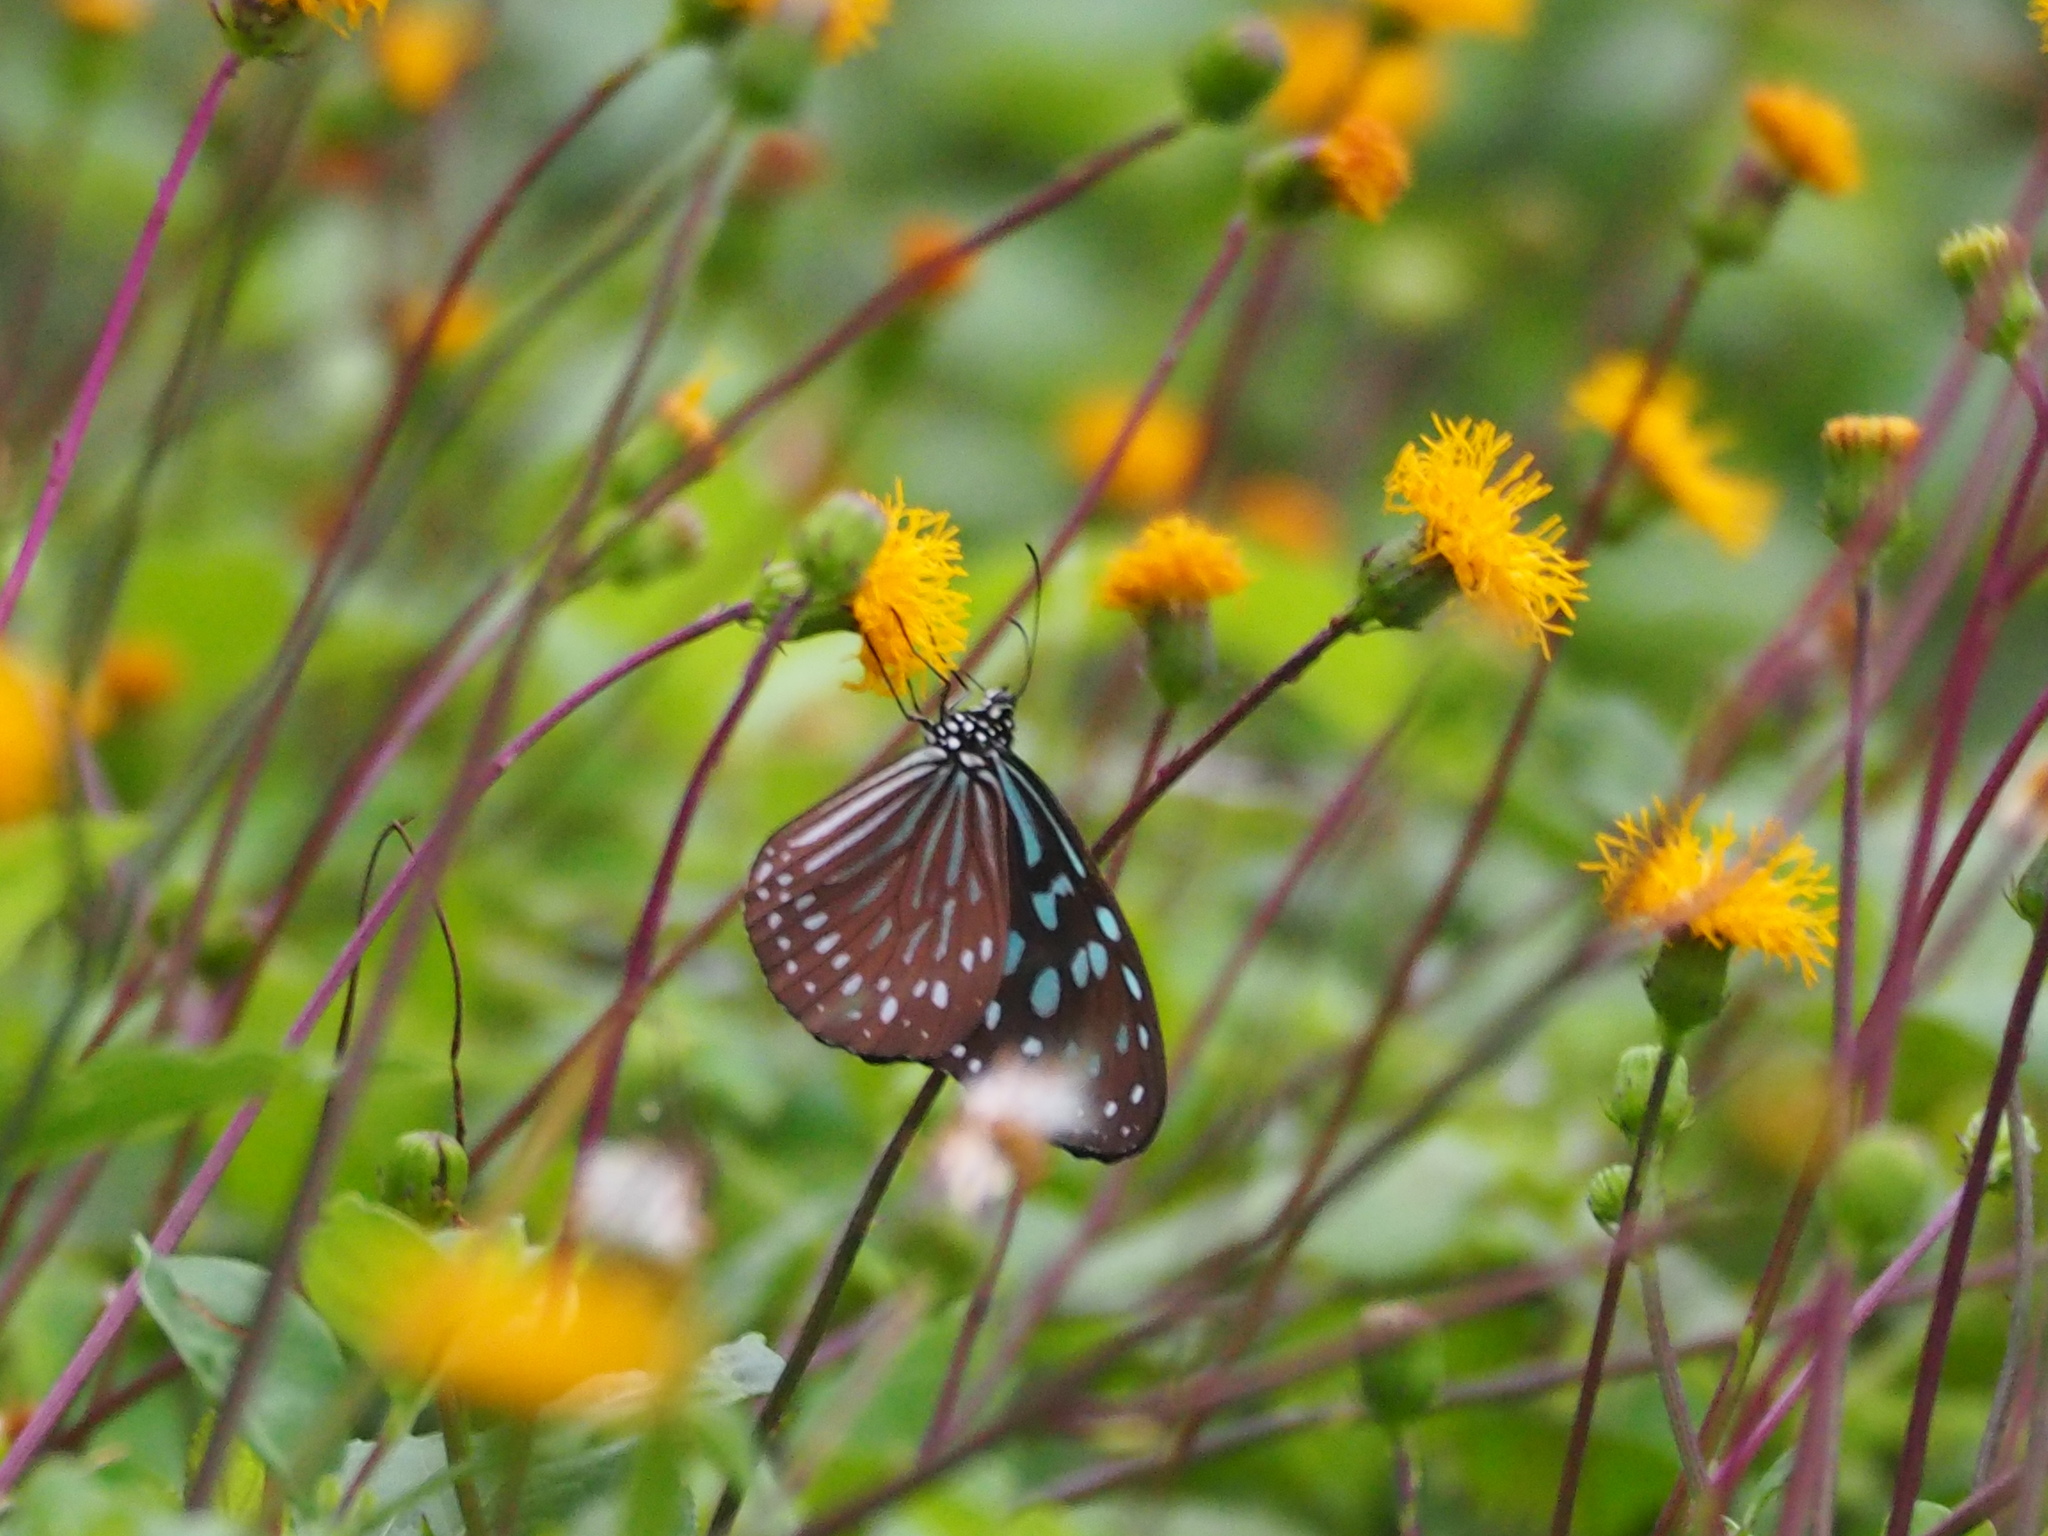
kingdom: Animalia
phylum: Arthropoda
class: Insecta
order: Lepidoptera
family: Nymphalidae
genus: Ideopsis
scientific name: Ideopsis similis
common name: Ceylon blue glassy tiger
